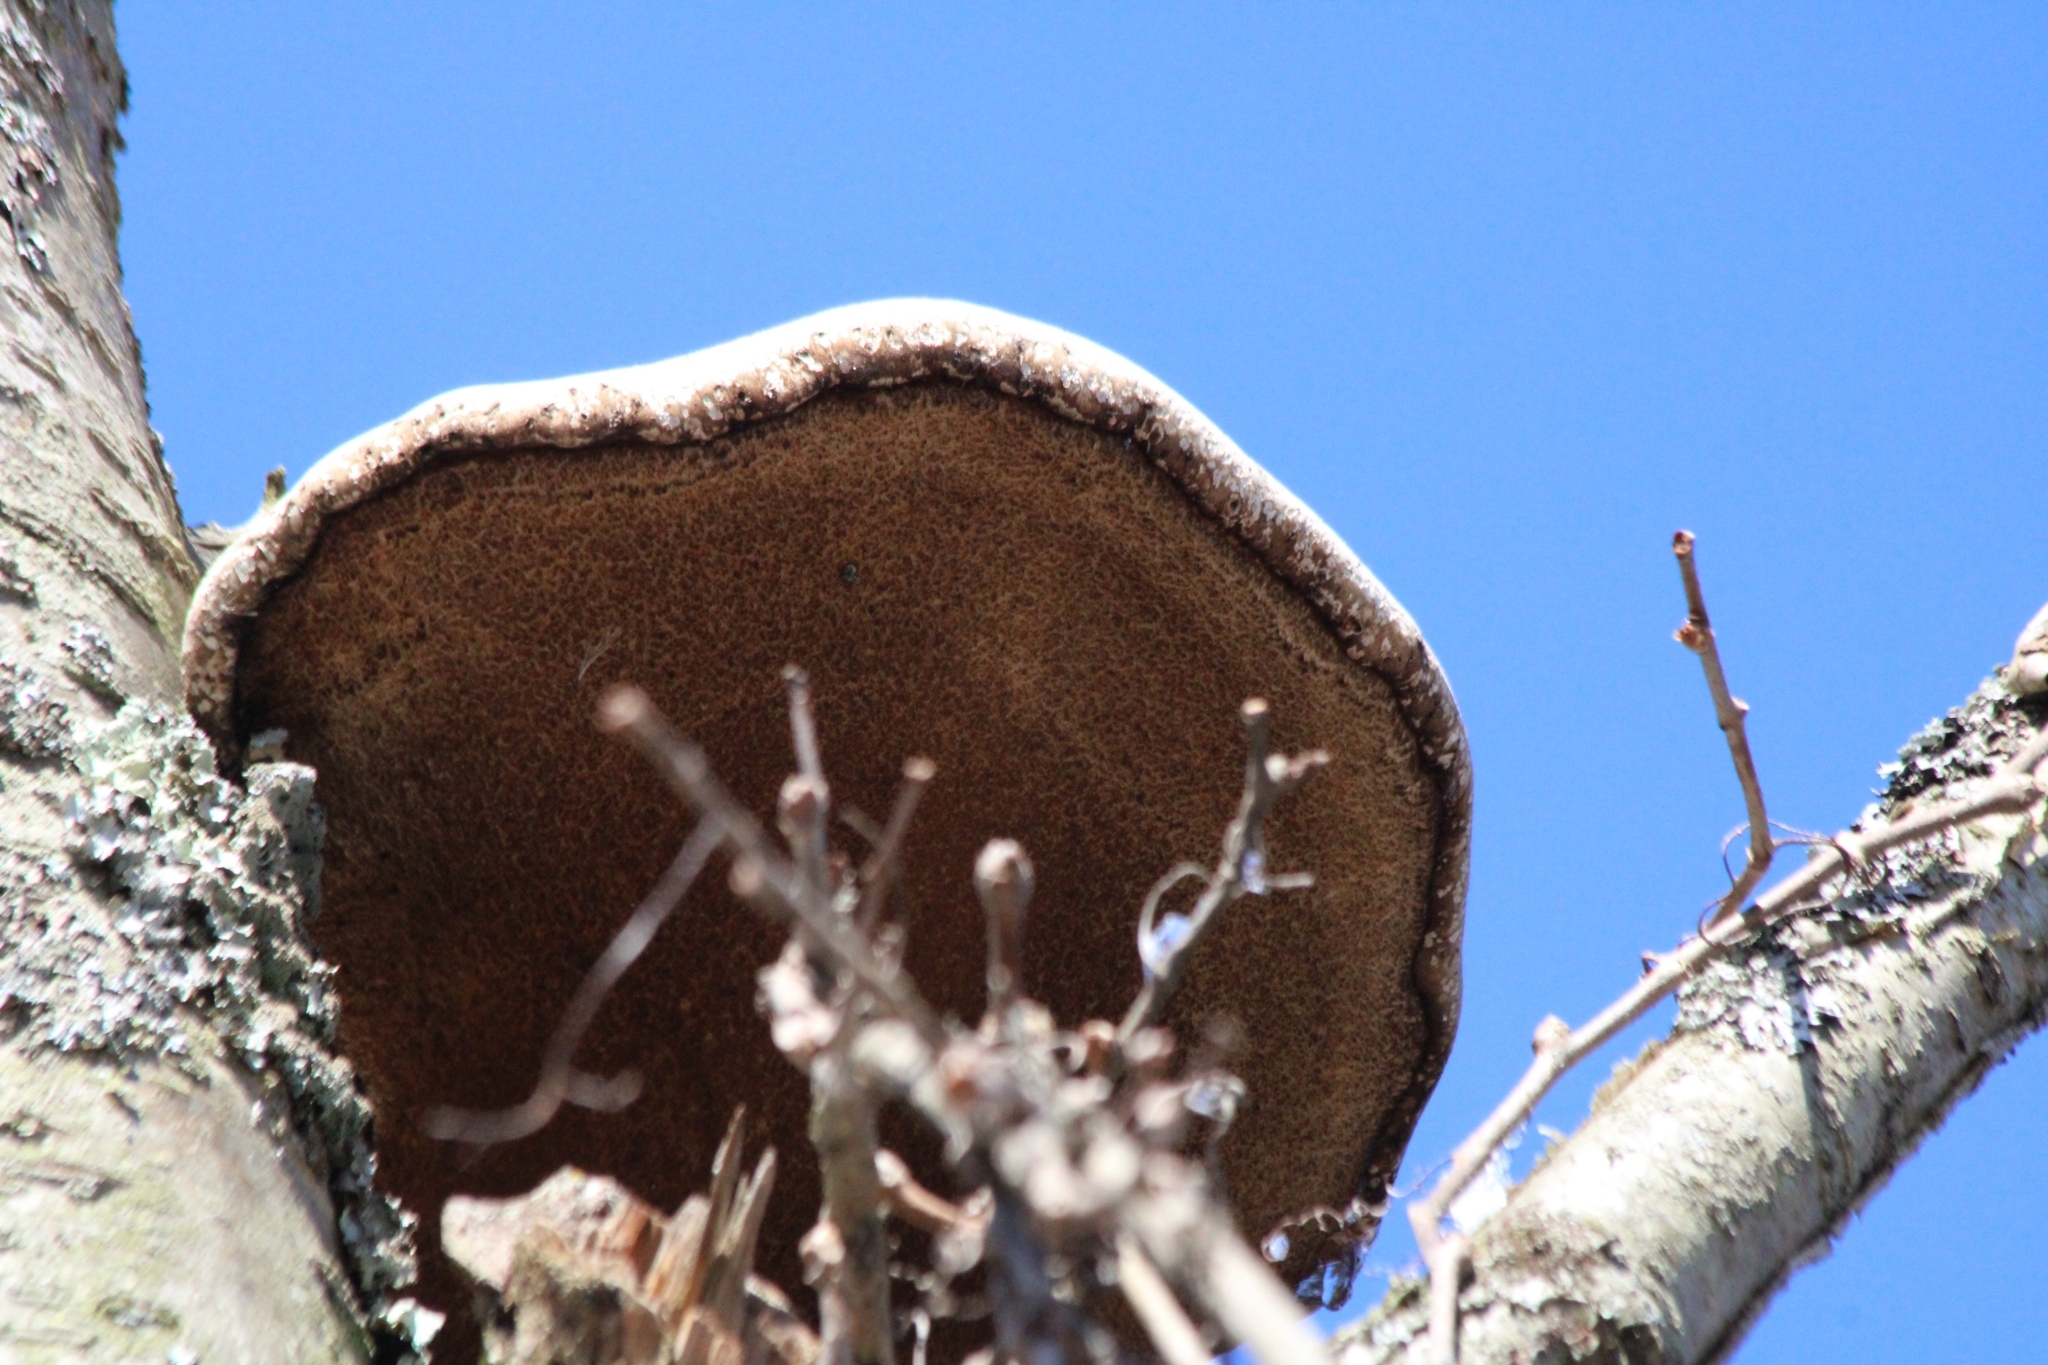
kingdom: Fungi
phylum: Basidiomycota
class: Agaricomycetes
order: Polyporales
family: Fomitopsidaceae
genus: Fomitopsis
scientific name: Fomitopsis betulina
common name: Birch polypore
